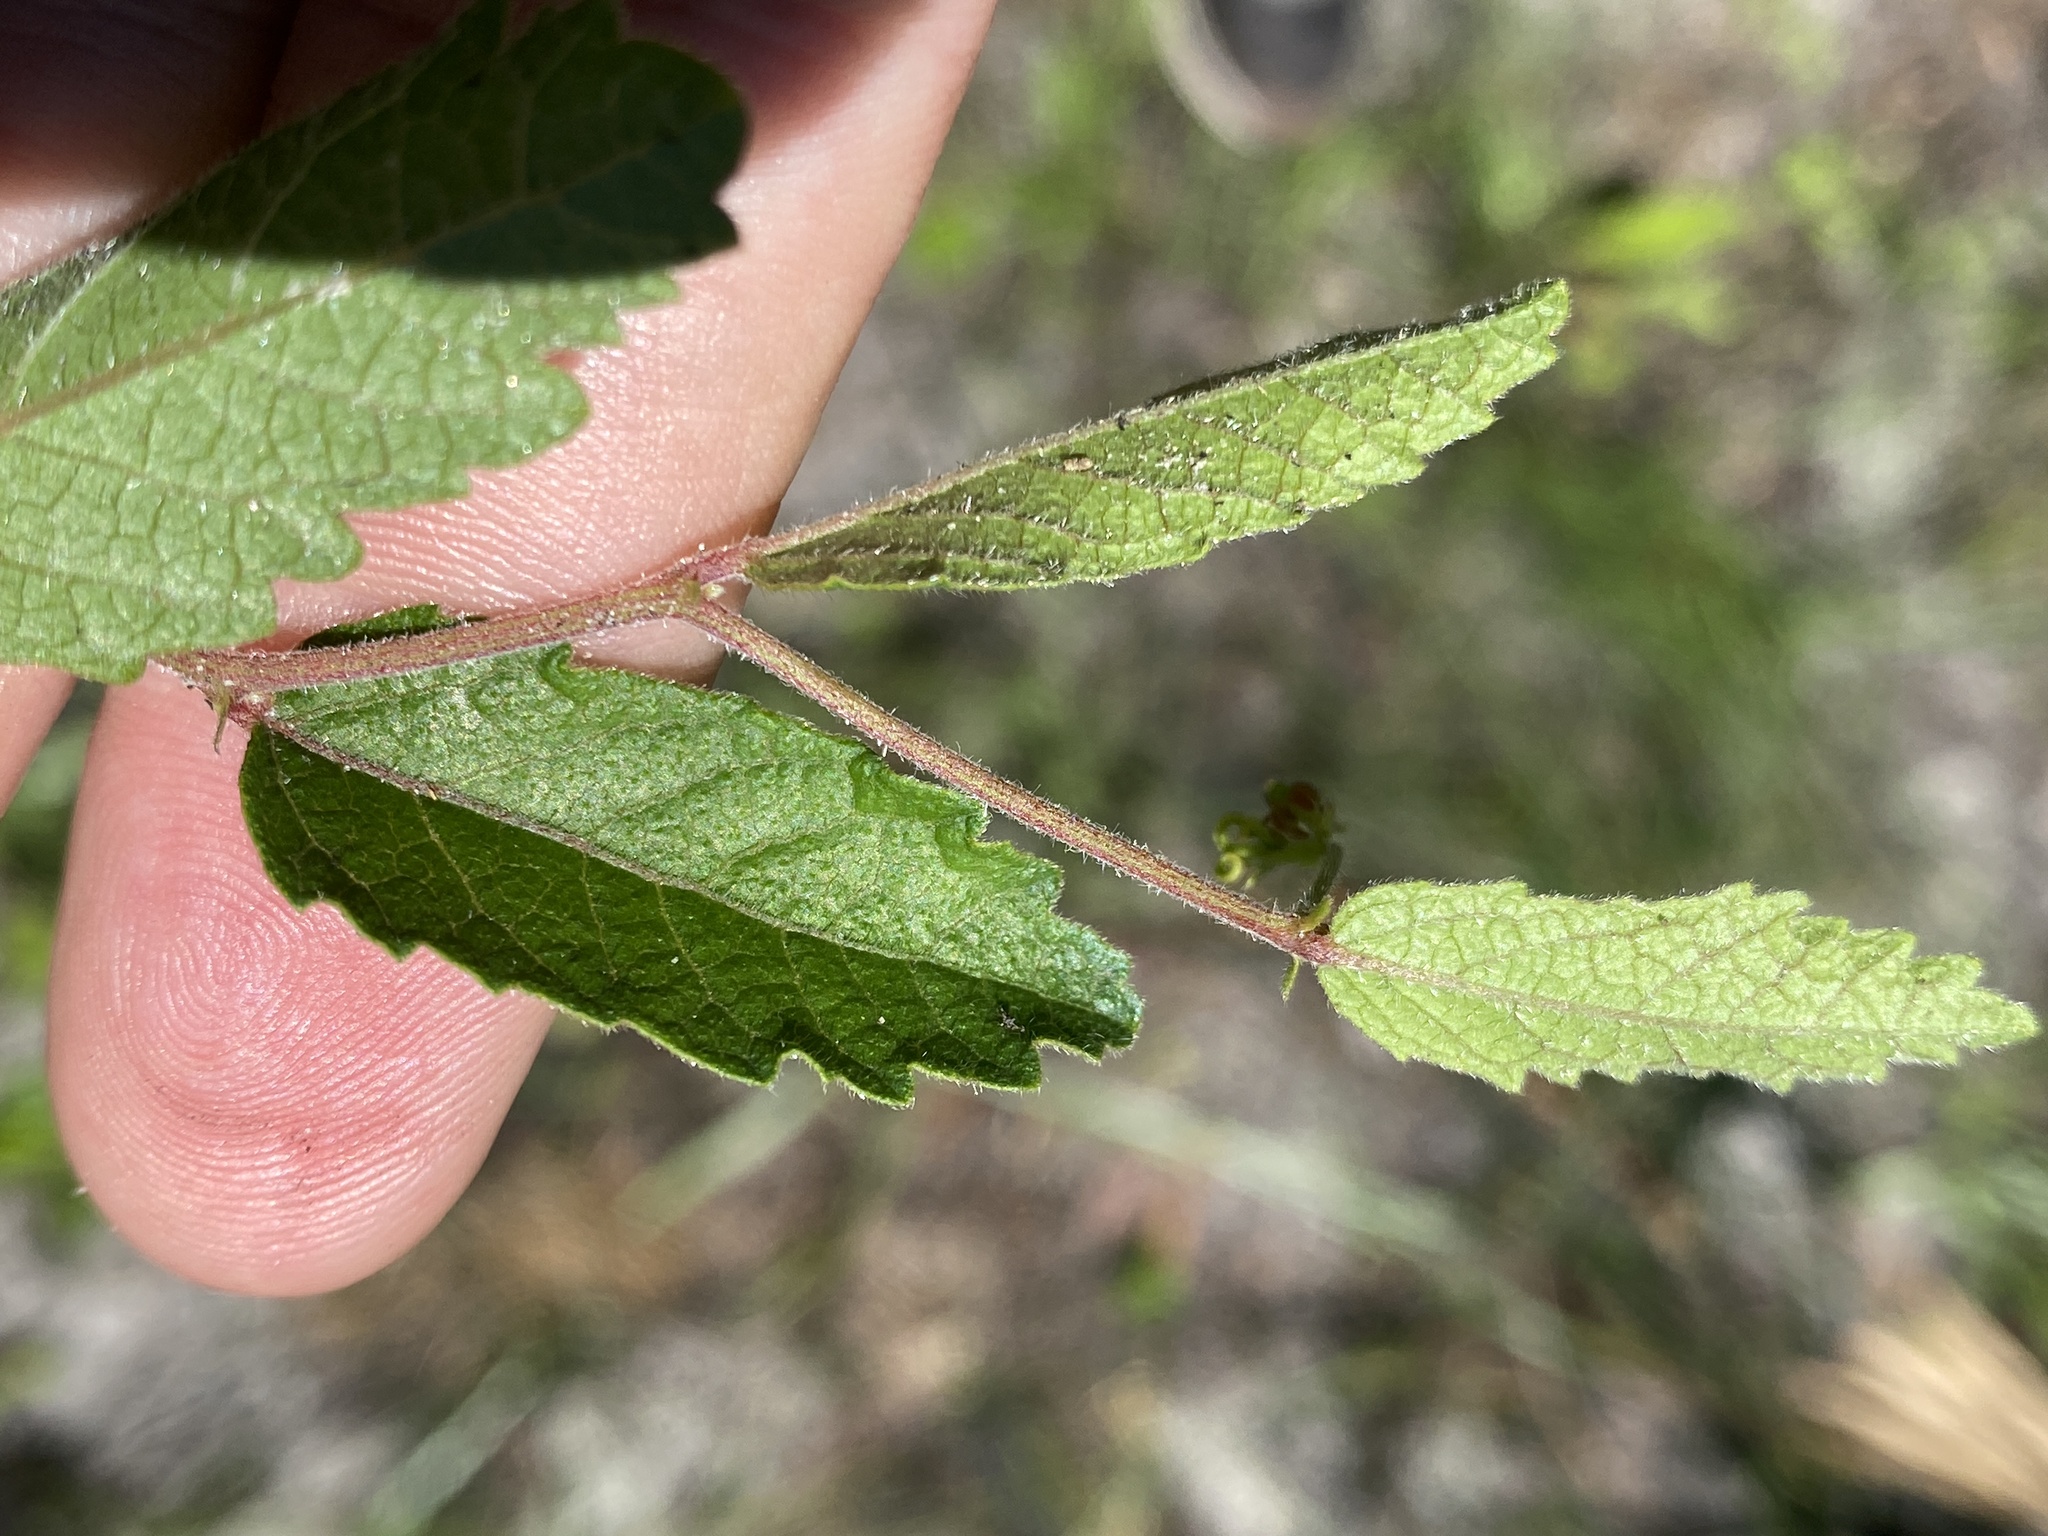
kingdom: Plantae
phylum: Tracheophyta
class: Magnoliopsida
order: Malpighiales
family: Euphorbiaceae
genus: Tragia
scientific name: Tragia smallii
